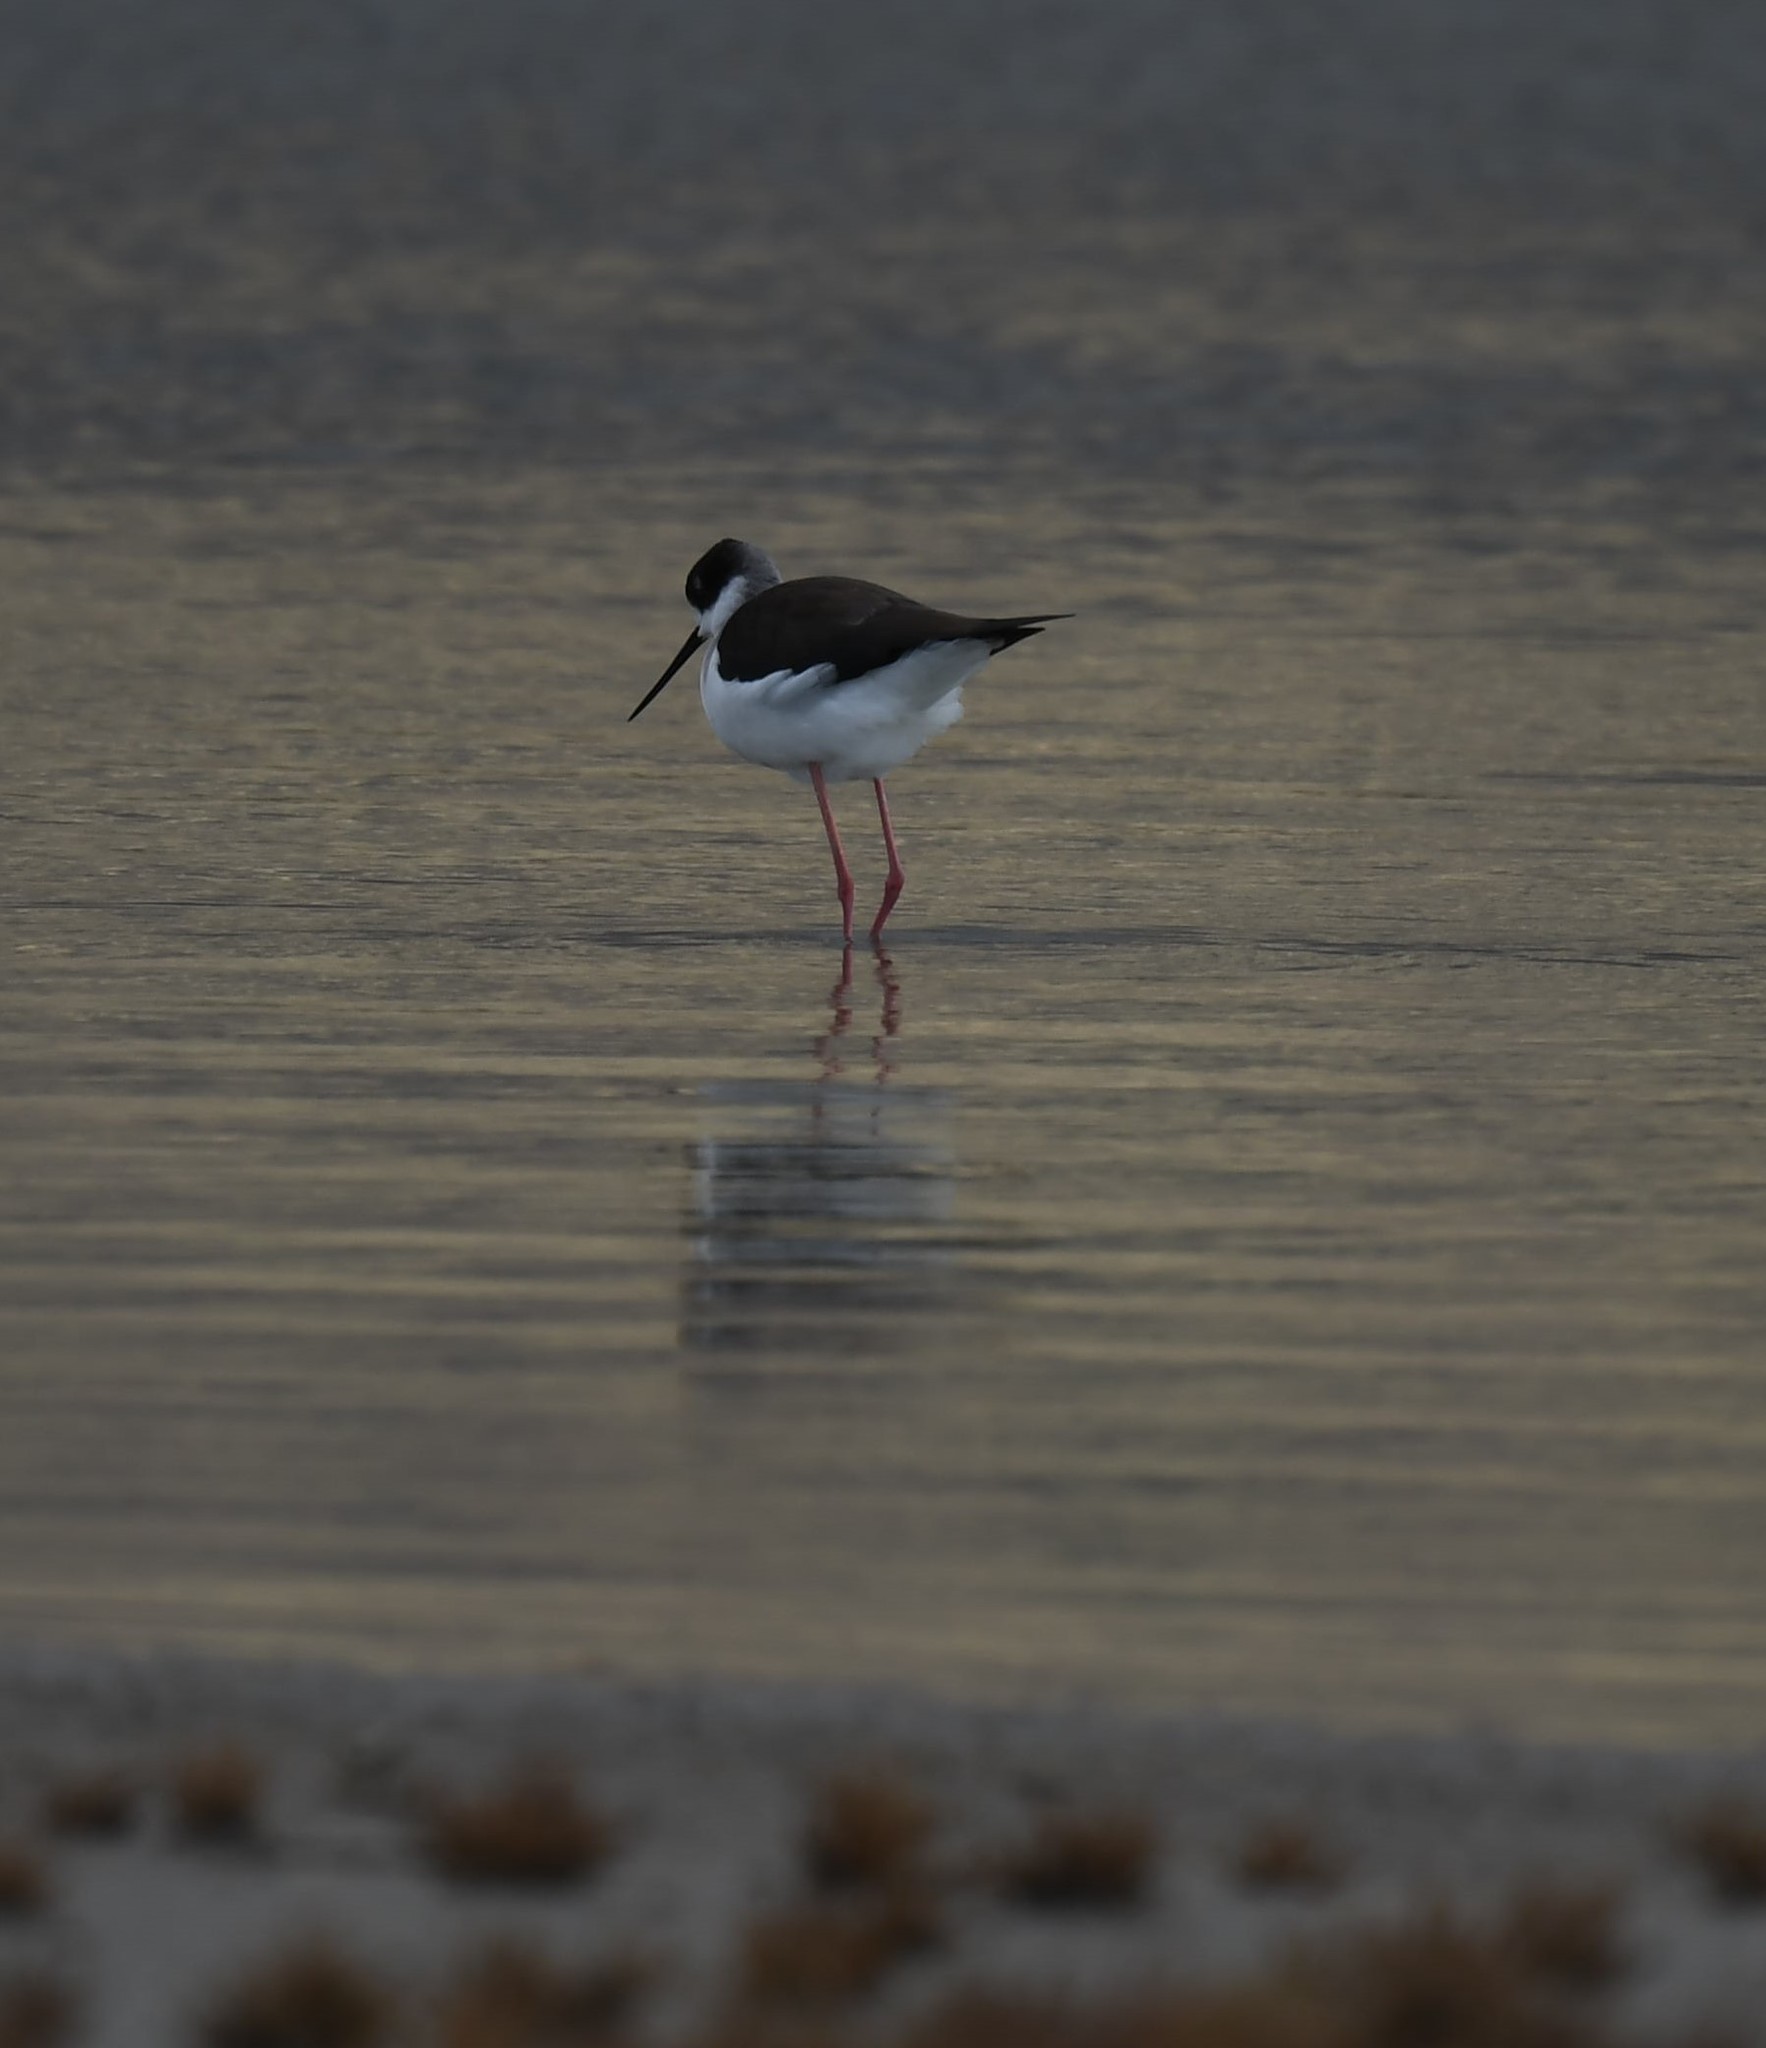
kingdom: Animalia
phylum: Chordata
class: Aves
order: Charadriiformes
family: Recurvirostridae
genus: Himantopus
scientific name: Himantopus mexicanus
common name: Black-necked stilt
